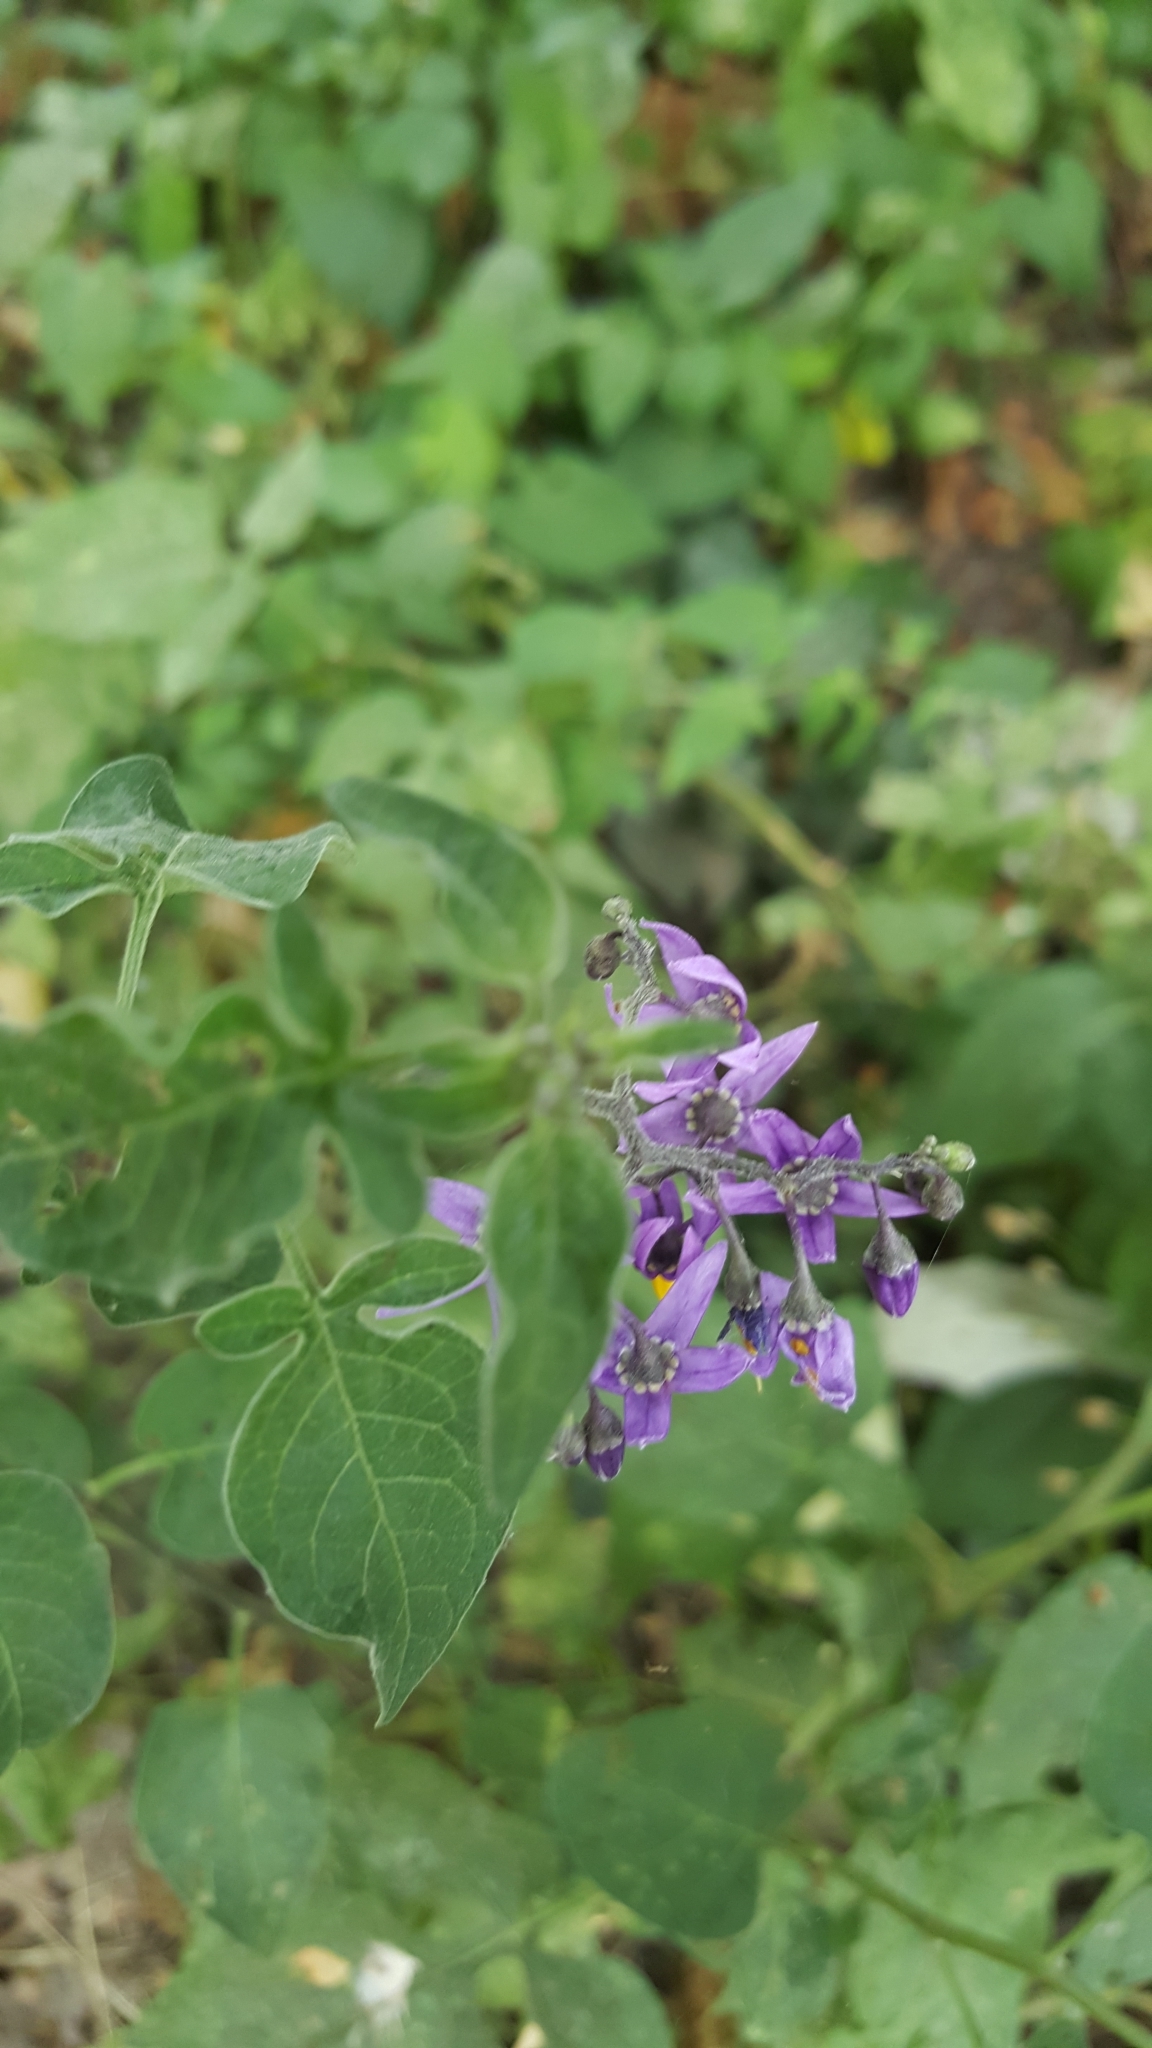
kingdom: Plantae
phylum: Tracheophyta
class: Magnoliopsida
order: Solanales
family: Solanaceae
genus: Solanum
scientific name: Solanum dulcamara
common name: Climbing nightshade
